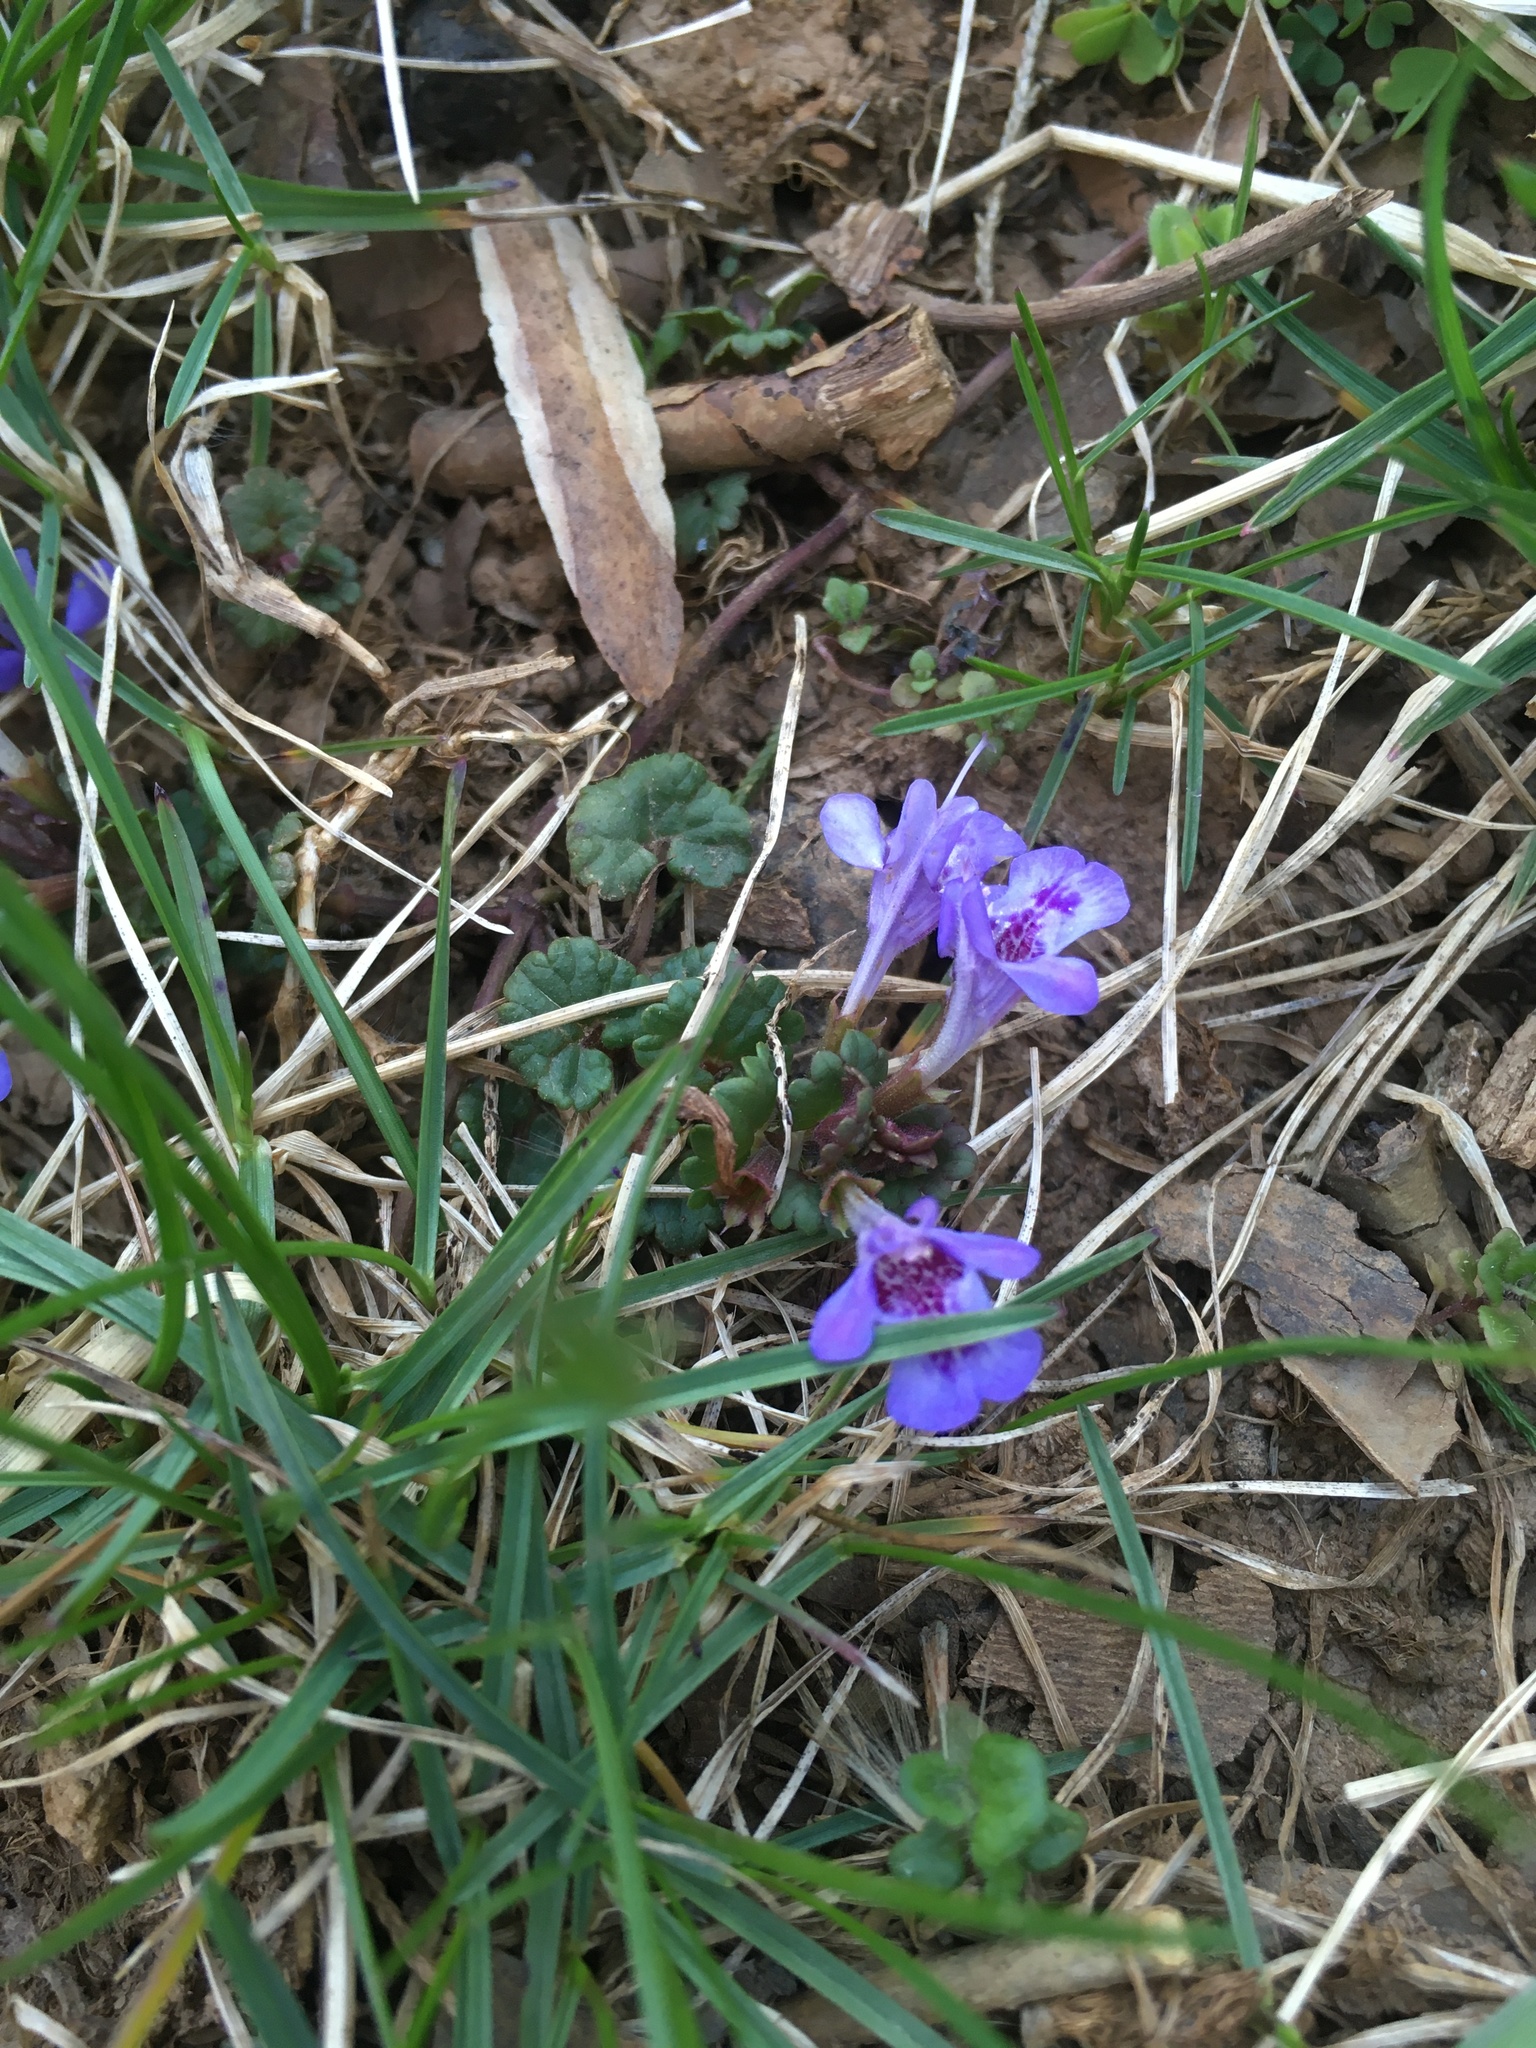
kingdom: Plantae
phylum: Tracheophyta
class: Magnoliopsida
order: Lamiales
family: Lamiaceae
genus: Glechoma
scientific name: Glechoma hederacea
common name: Ground ivy
